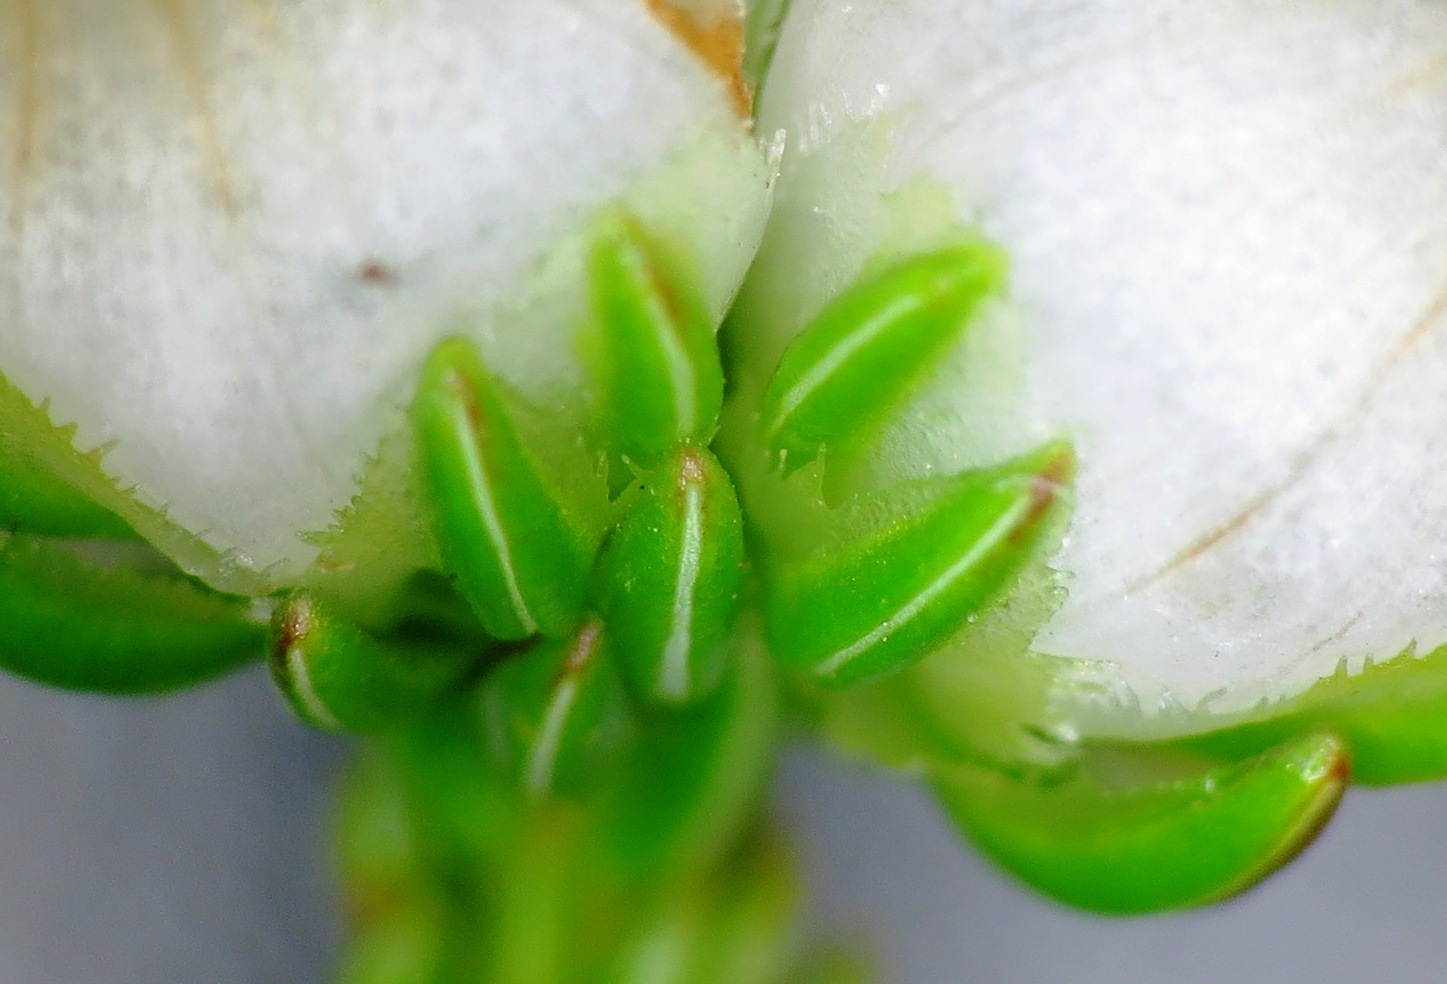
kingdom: Plantae
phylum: Tracheophyta
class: Magnoliopsida
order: Ericales
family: Ericaceae
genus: Erica
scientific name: Erica denticulata
